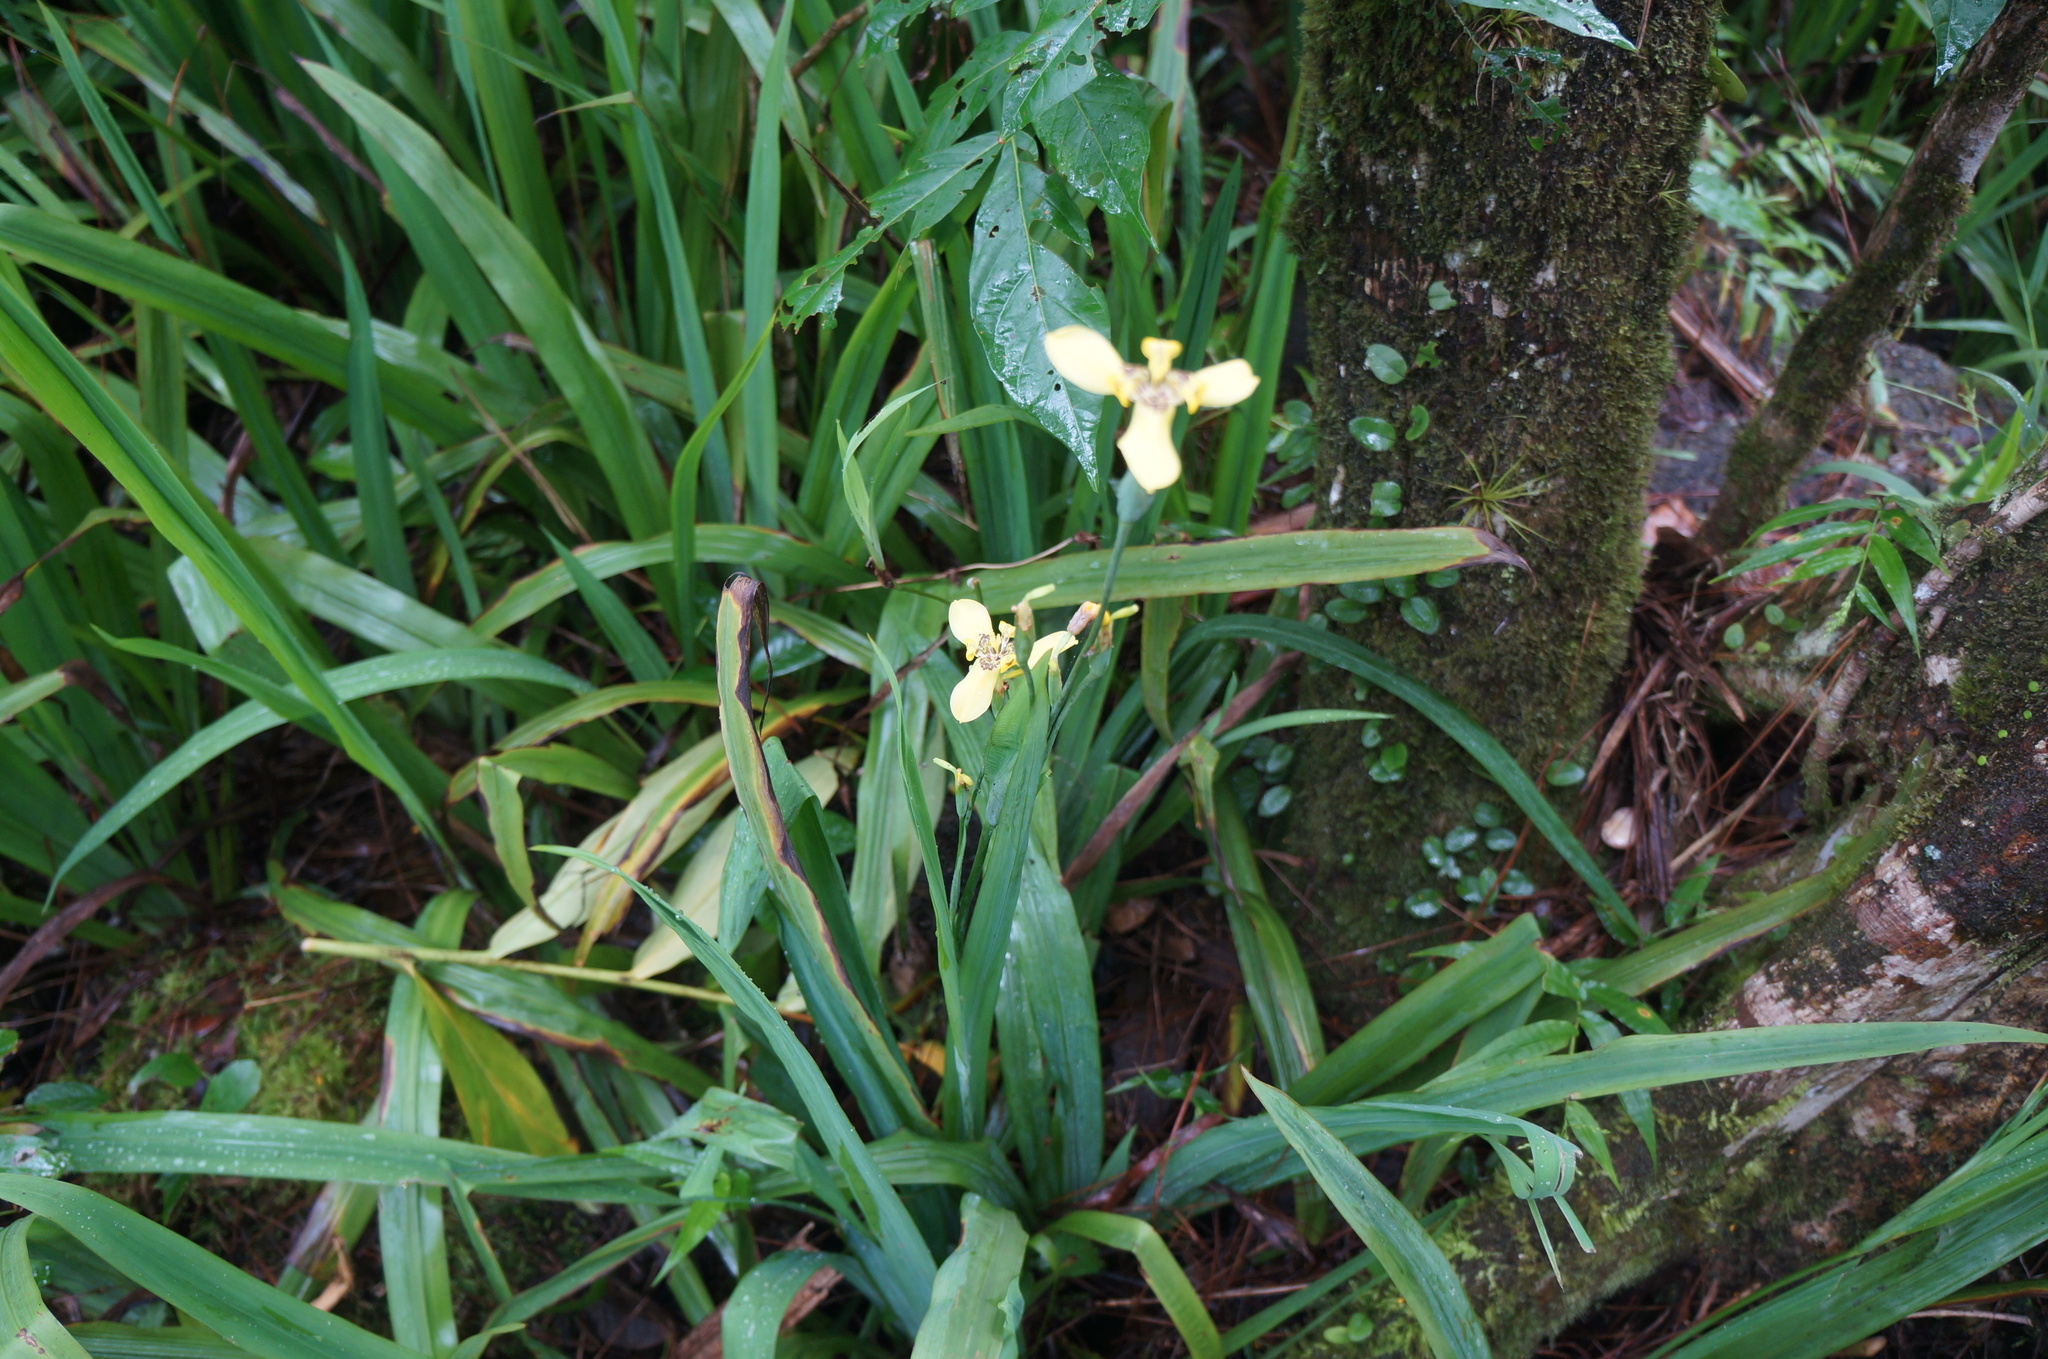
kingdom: Plantae
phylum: Tracheophyta
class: Liliopsida
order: Asparagales
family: Iridaceae
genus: Trimezia
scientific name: Trimezia steyermarkii
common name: Trimezia
